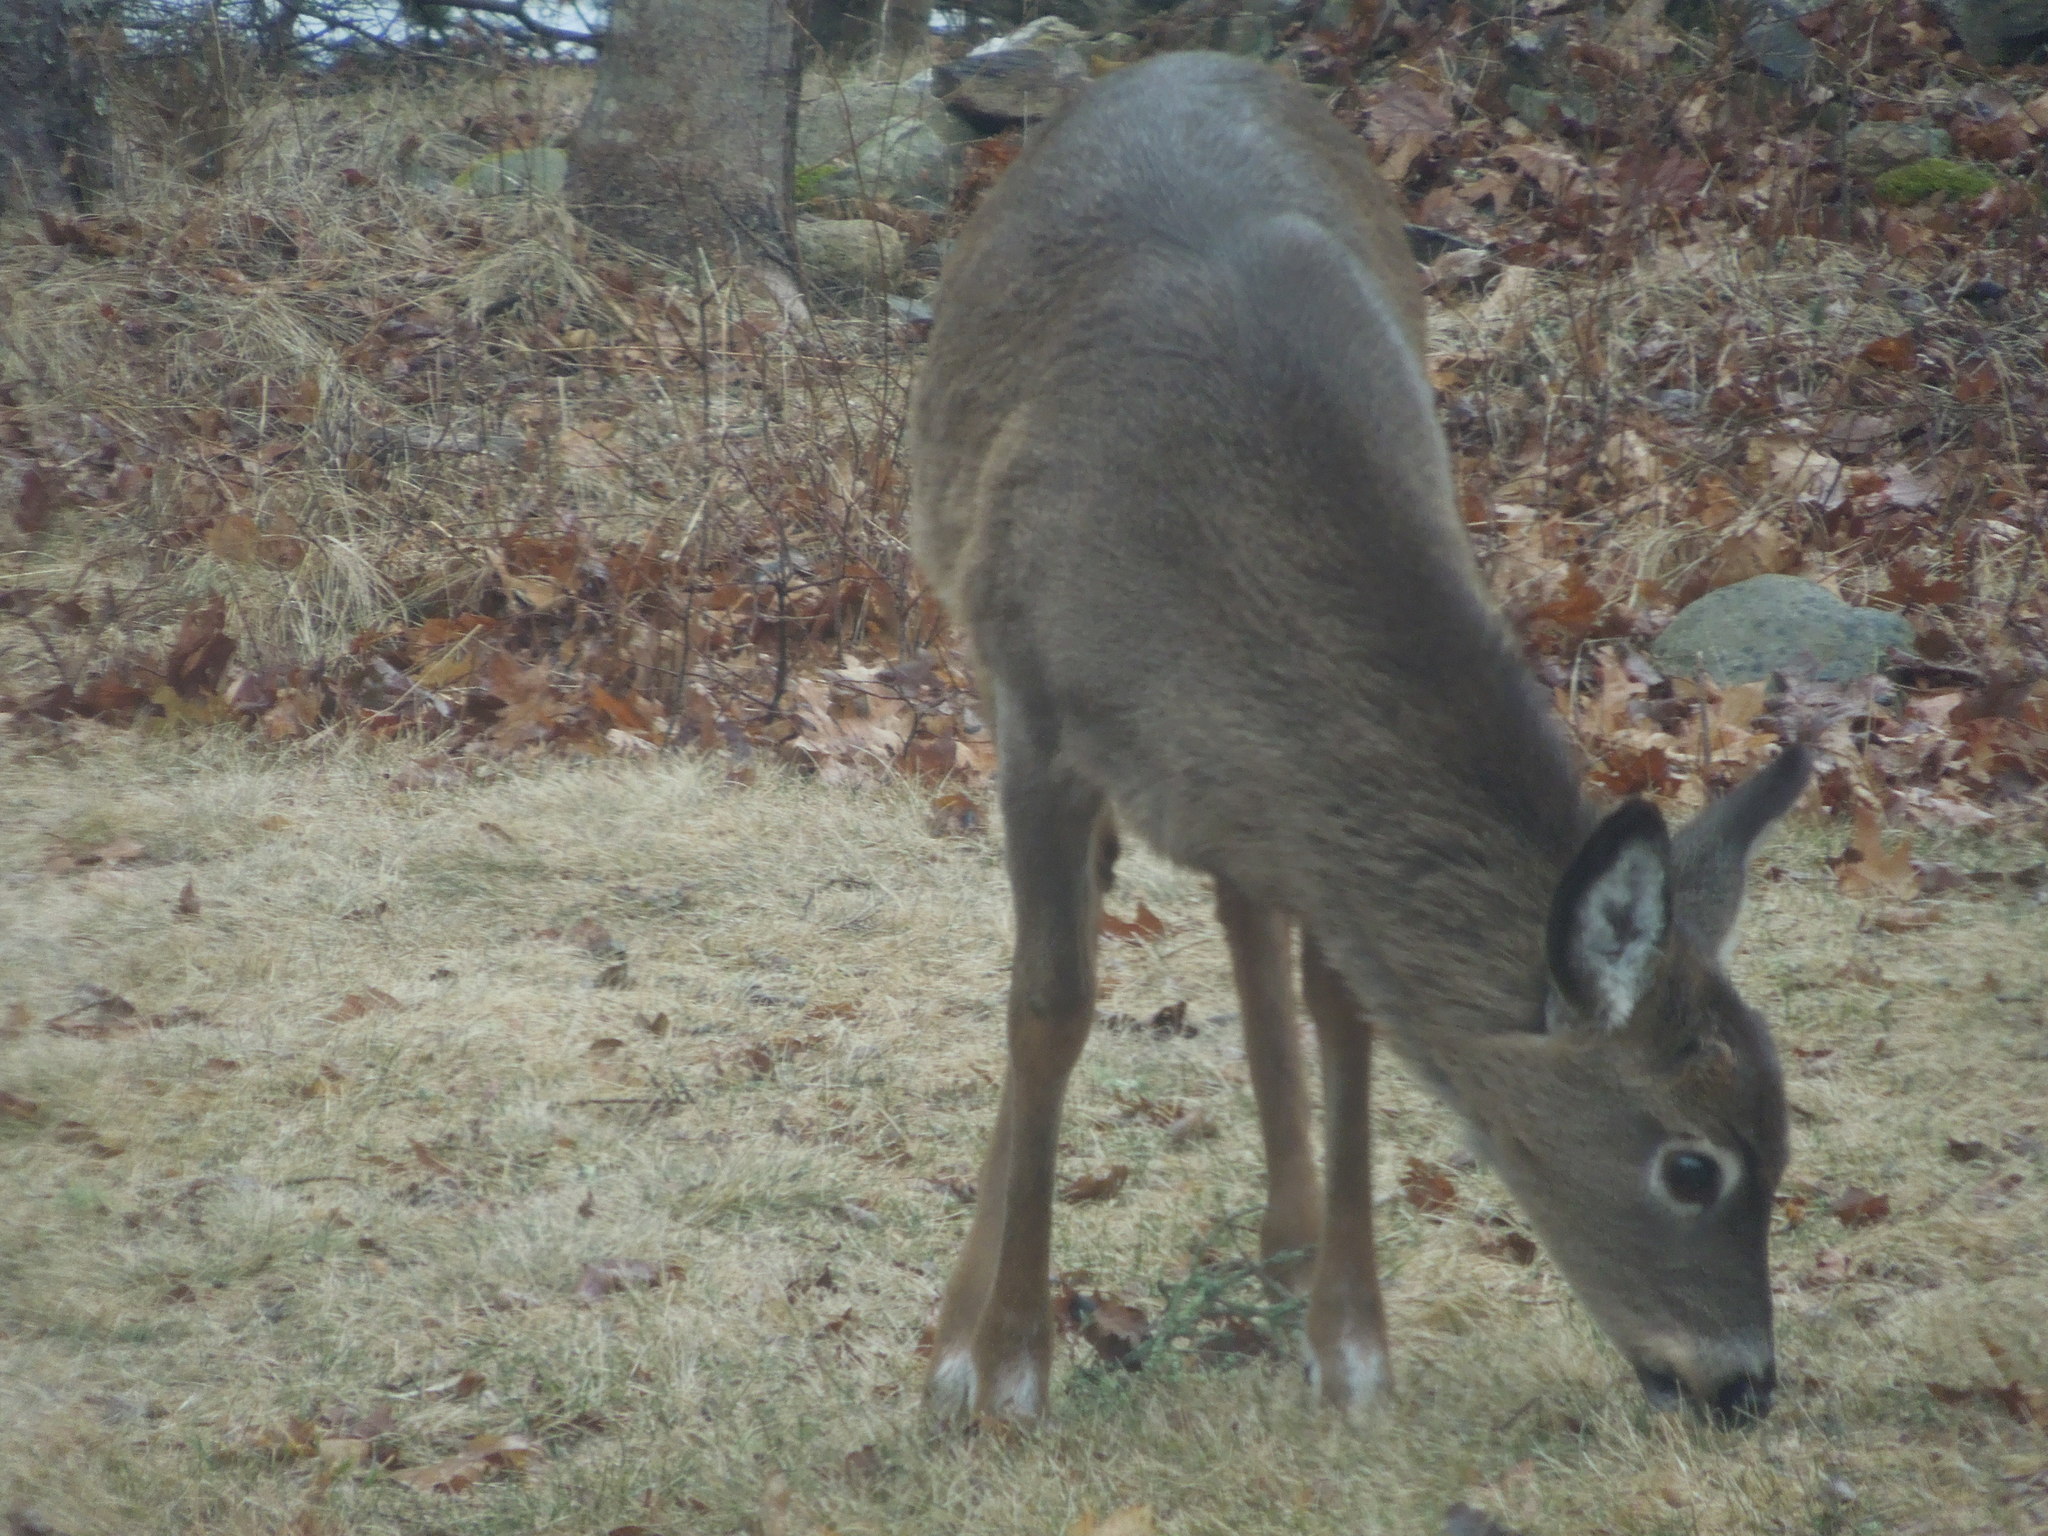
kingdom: Animalia
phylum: Chordata
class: Mammalia
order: Artiodactyla
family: Cervidae
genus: Odocoileus
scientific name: Odocoileus virginianus
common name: White-tailed deer
